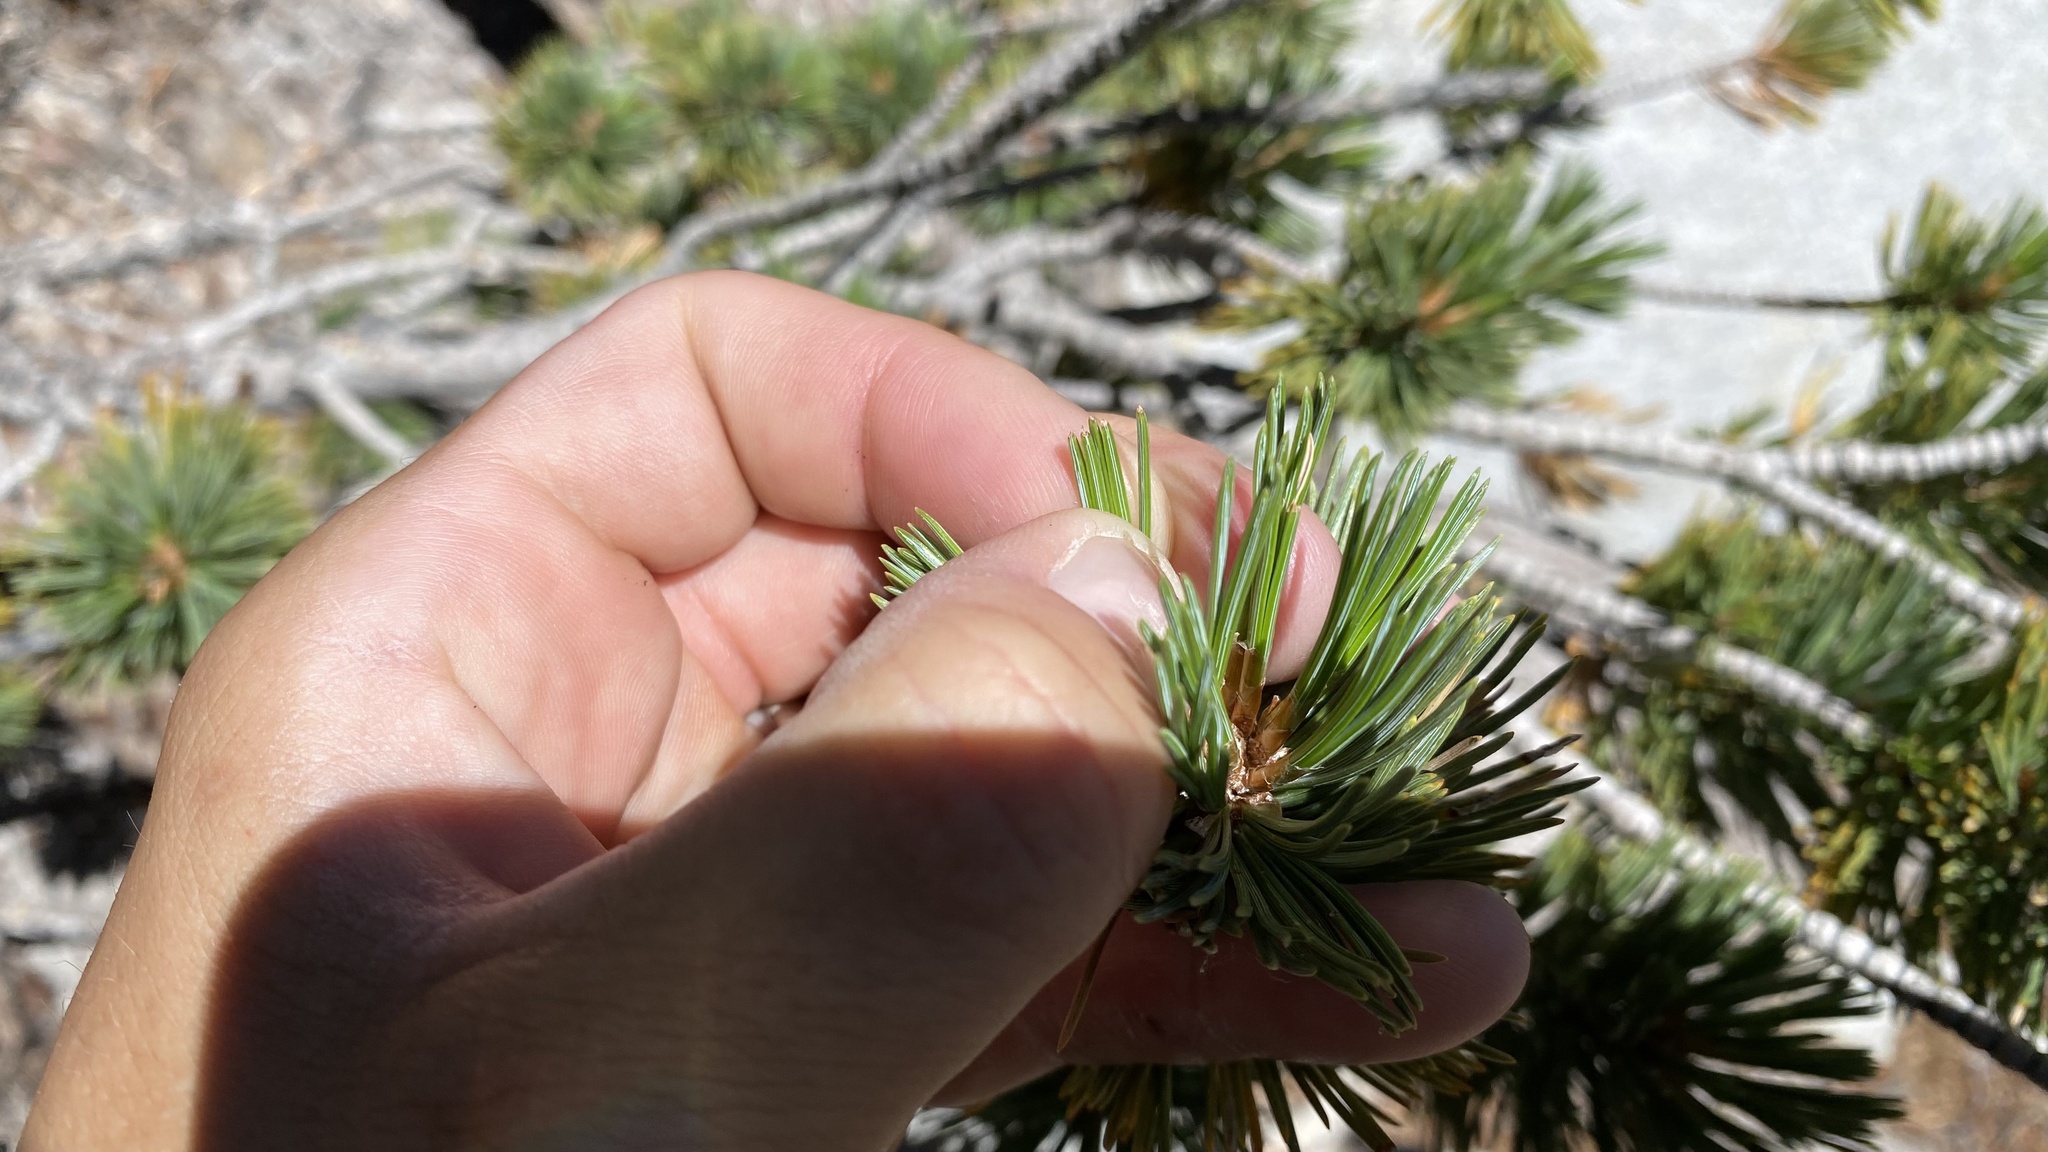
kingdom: Plantae
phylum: Tracheophyta
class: Pinopsida
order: Pinales
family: Pinaceae
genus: Pinus
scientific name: Pinus flexilis
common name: Limber pine
